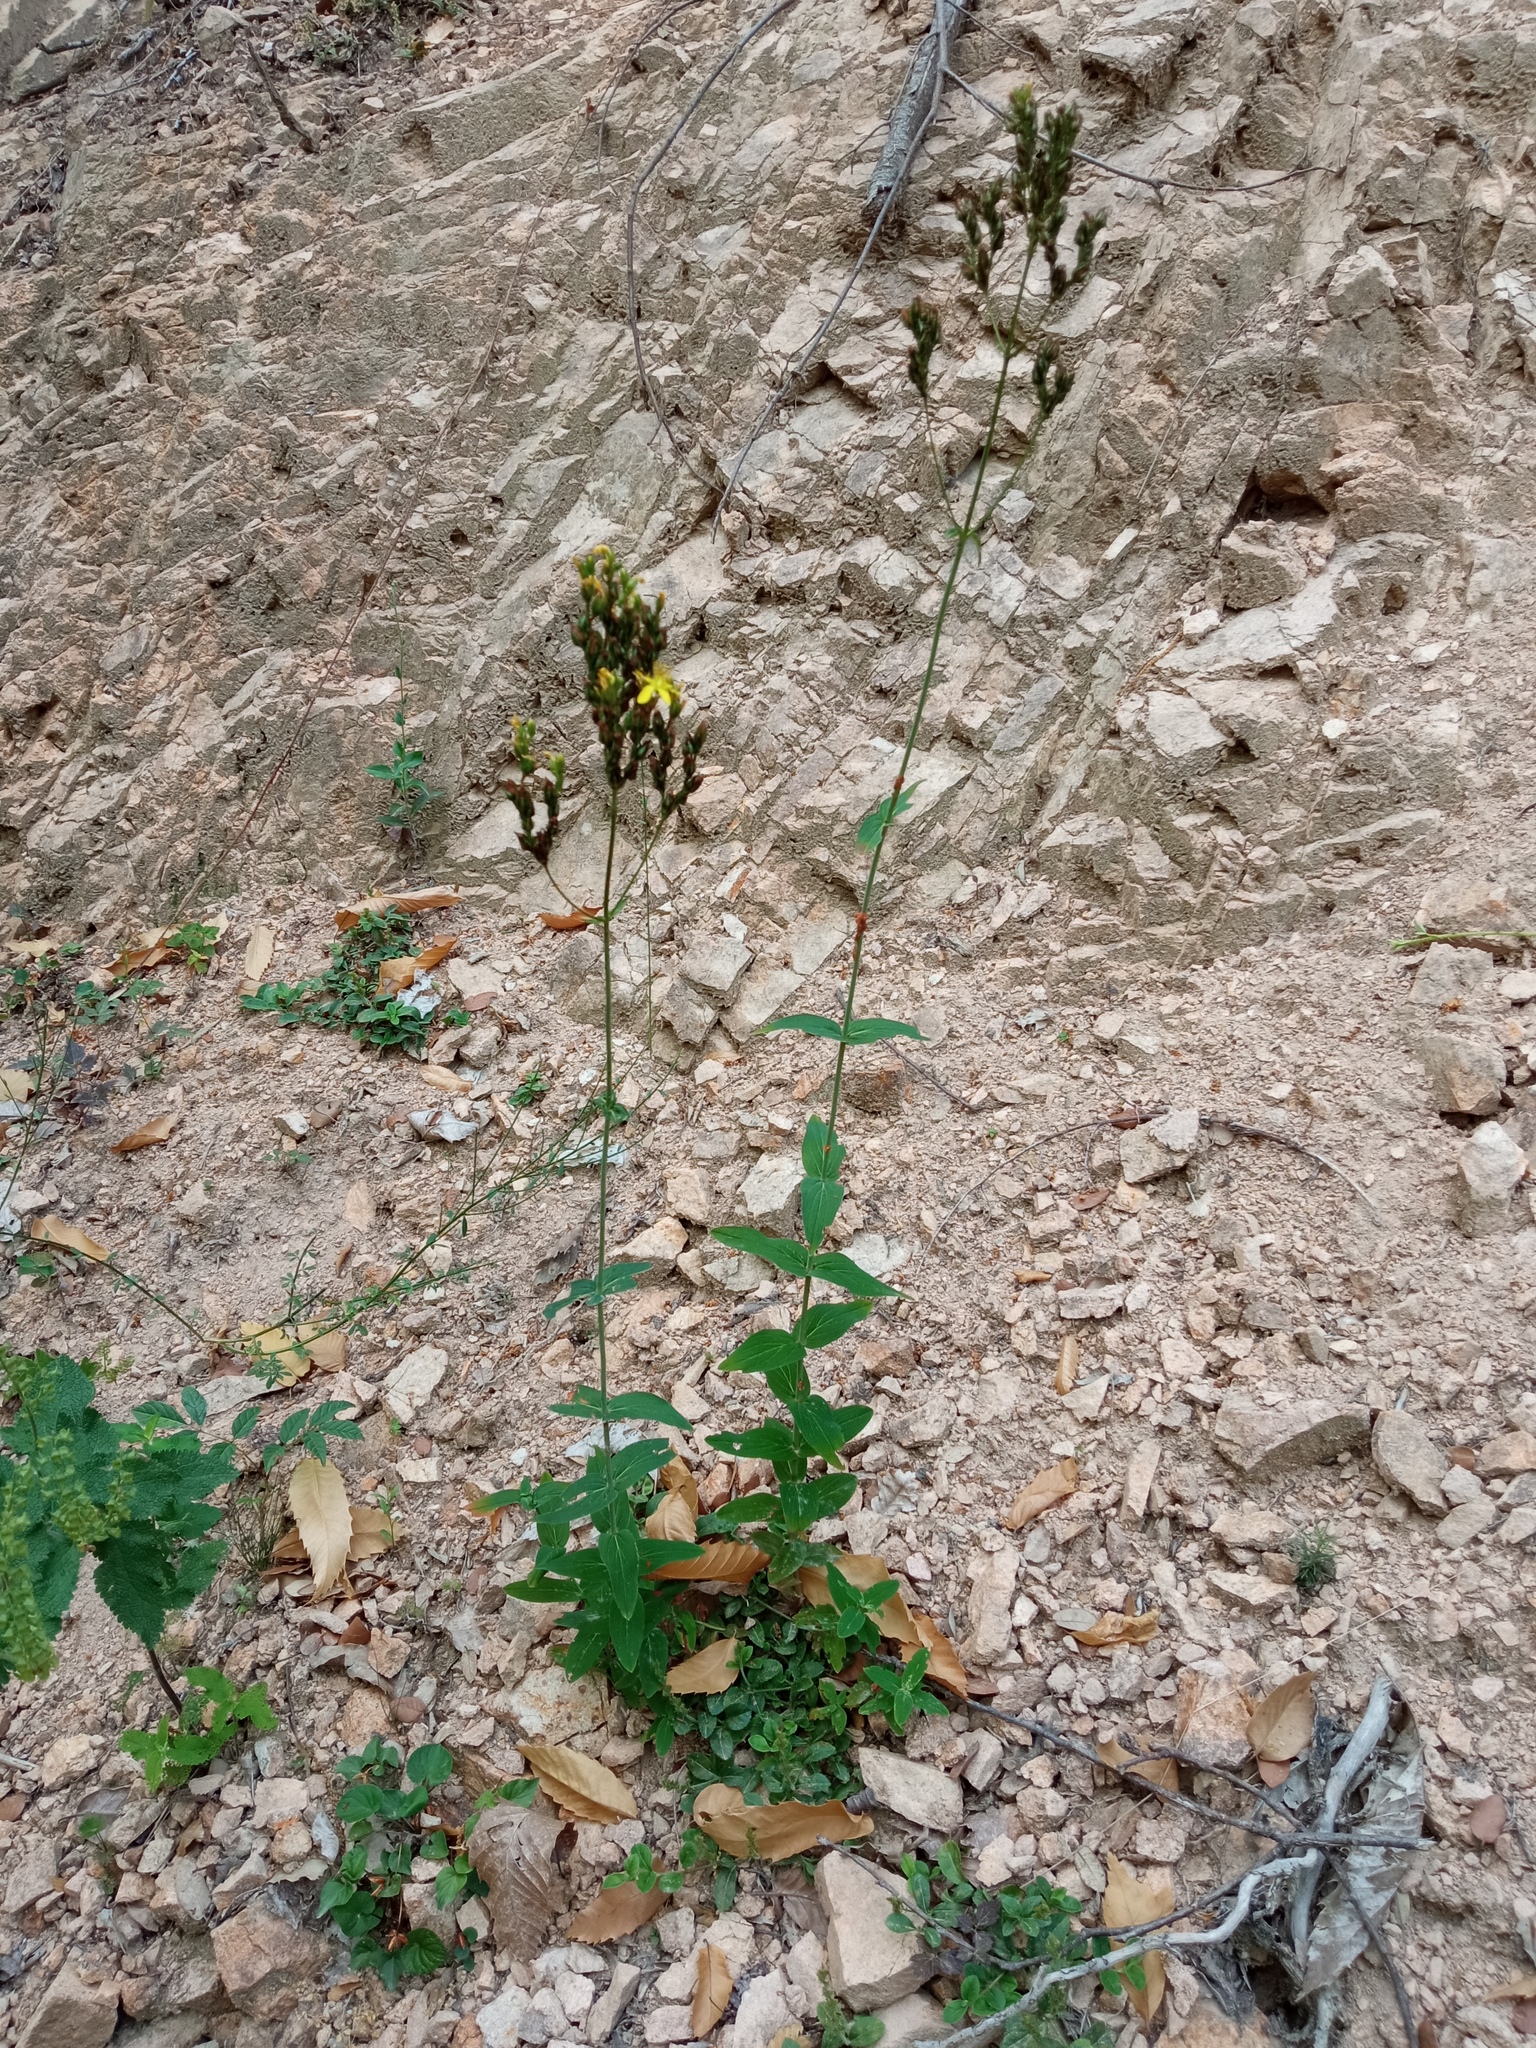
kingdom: Plantae
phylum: Tracheophyta
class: Magnoliopsida
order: Malpighiales
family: Hypericaceae
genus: Hypericum
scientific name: Hypericum montanum
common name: Pale st. john's-wort
